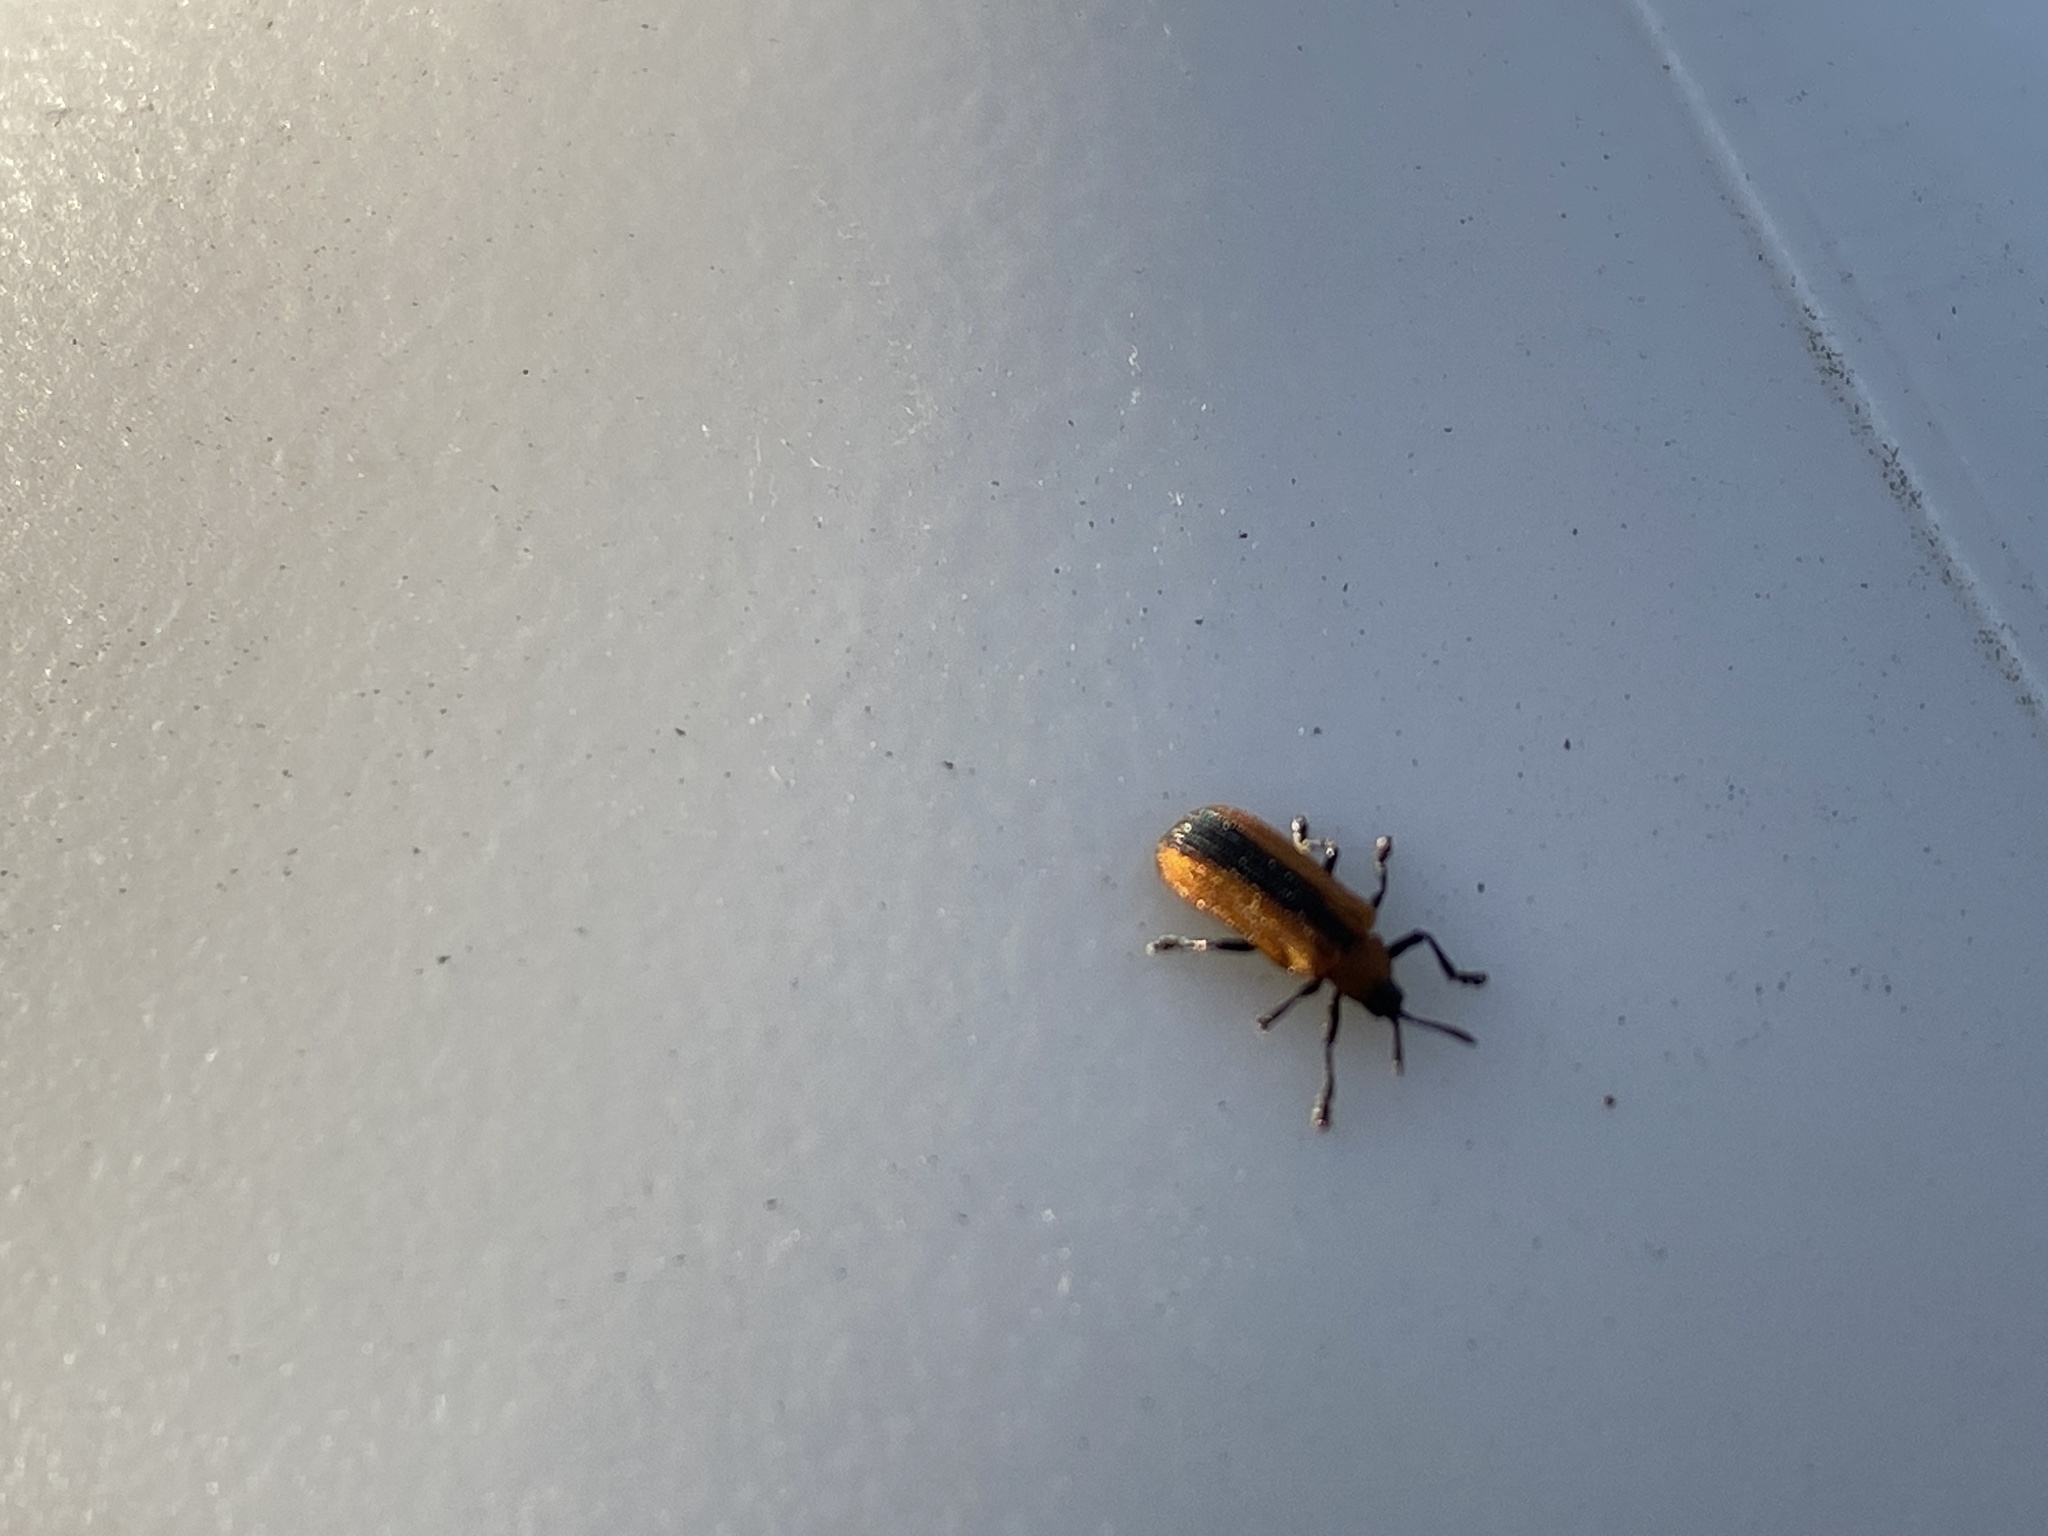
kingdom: Animalia
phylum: Arthropoda
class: Insecta
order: Coleoptera
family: Chrysomelidae
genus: Odontota
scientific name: Odontota dorsalis
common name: Locust leaf-miner beetle
